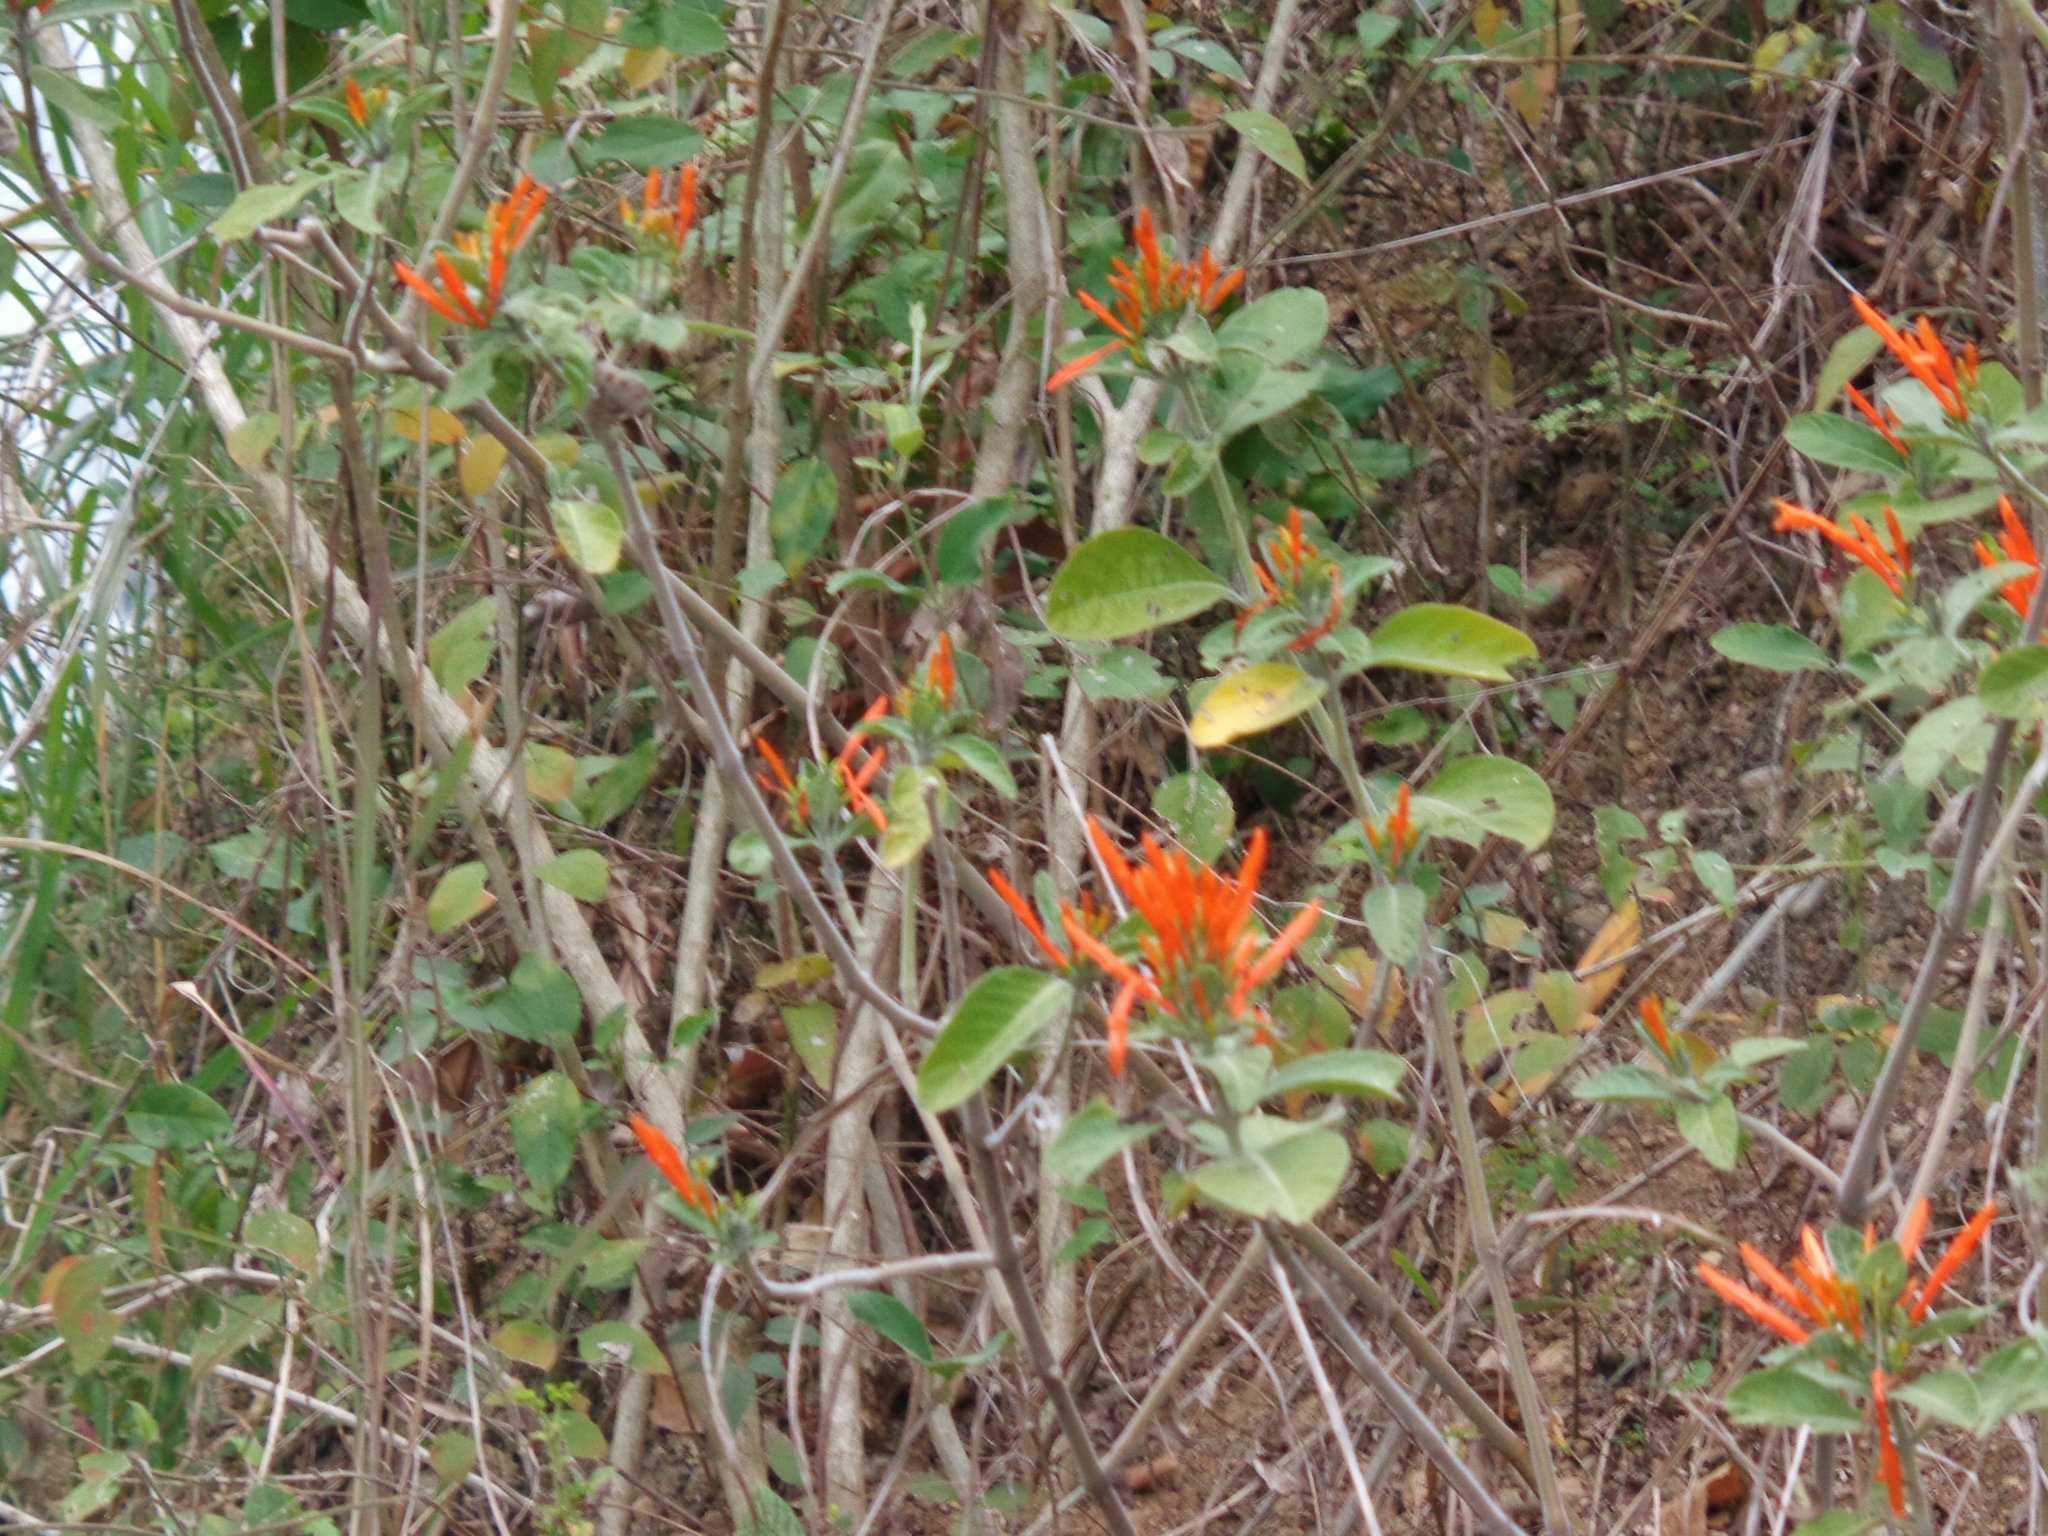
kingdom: Plantae
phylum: Tracheophyta
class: Magnoliopsida
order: Lamiales
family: Acanthaceae
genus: Justicia
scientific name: Justicia spicigera
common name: Mohintli
